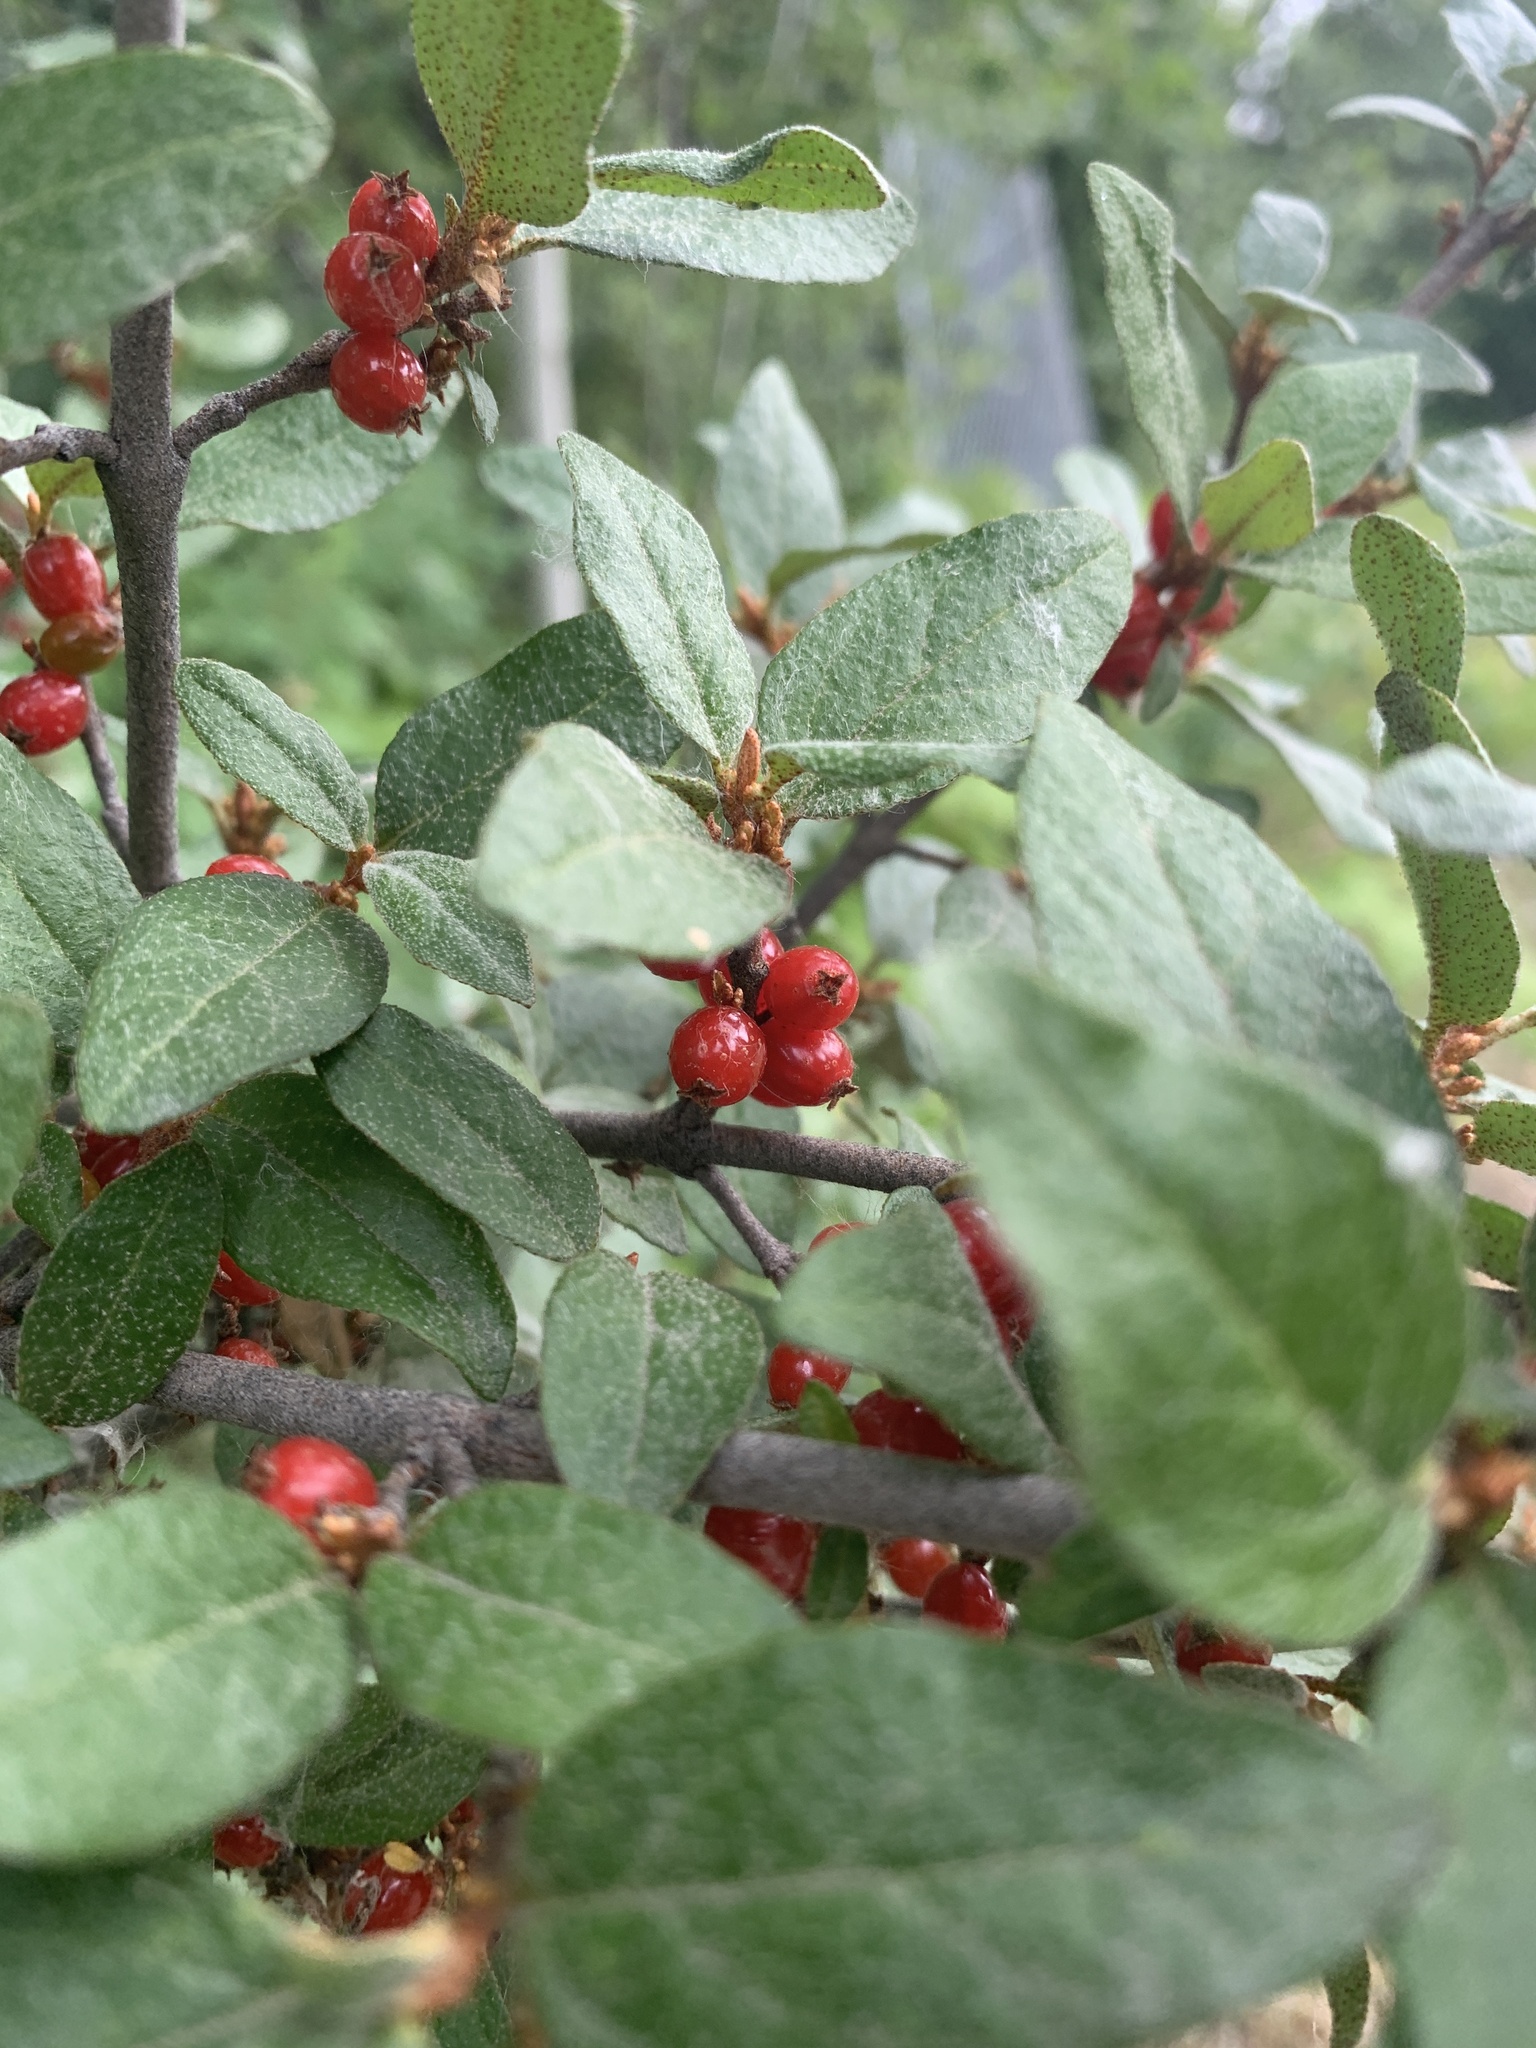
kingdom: Plantae
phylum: Tracheophyta
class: Magnoliopsida
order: Rosales
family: Elaeagnaceae
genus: Shepherdia
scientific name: Shepherdia canadensis
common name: Soapberry
